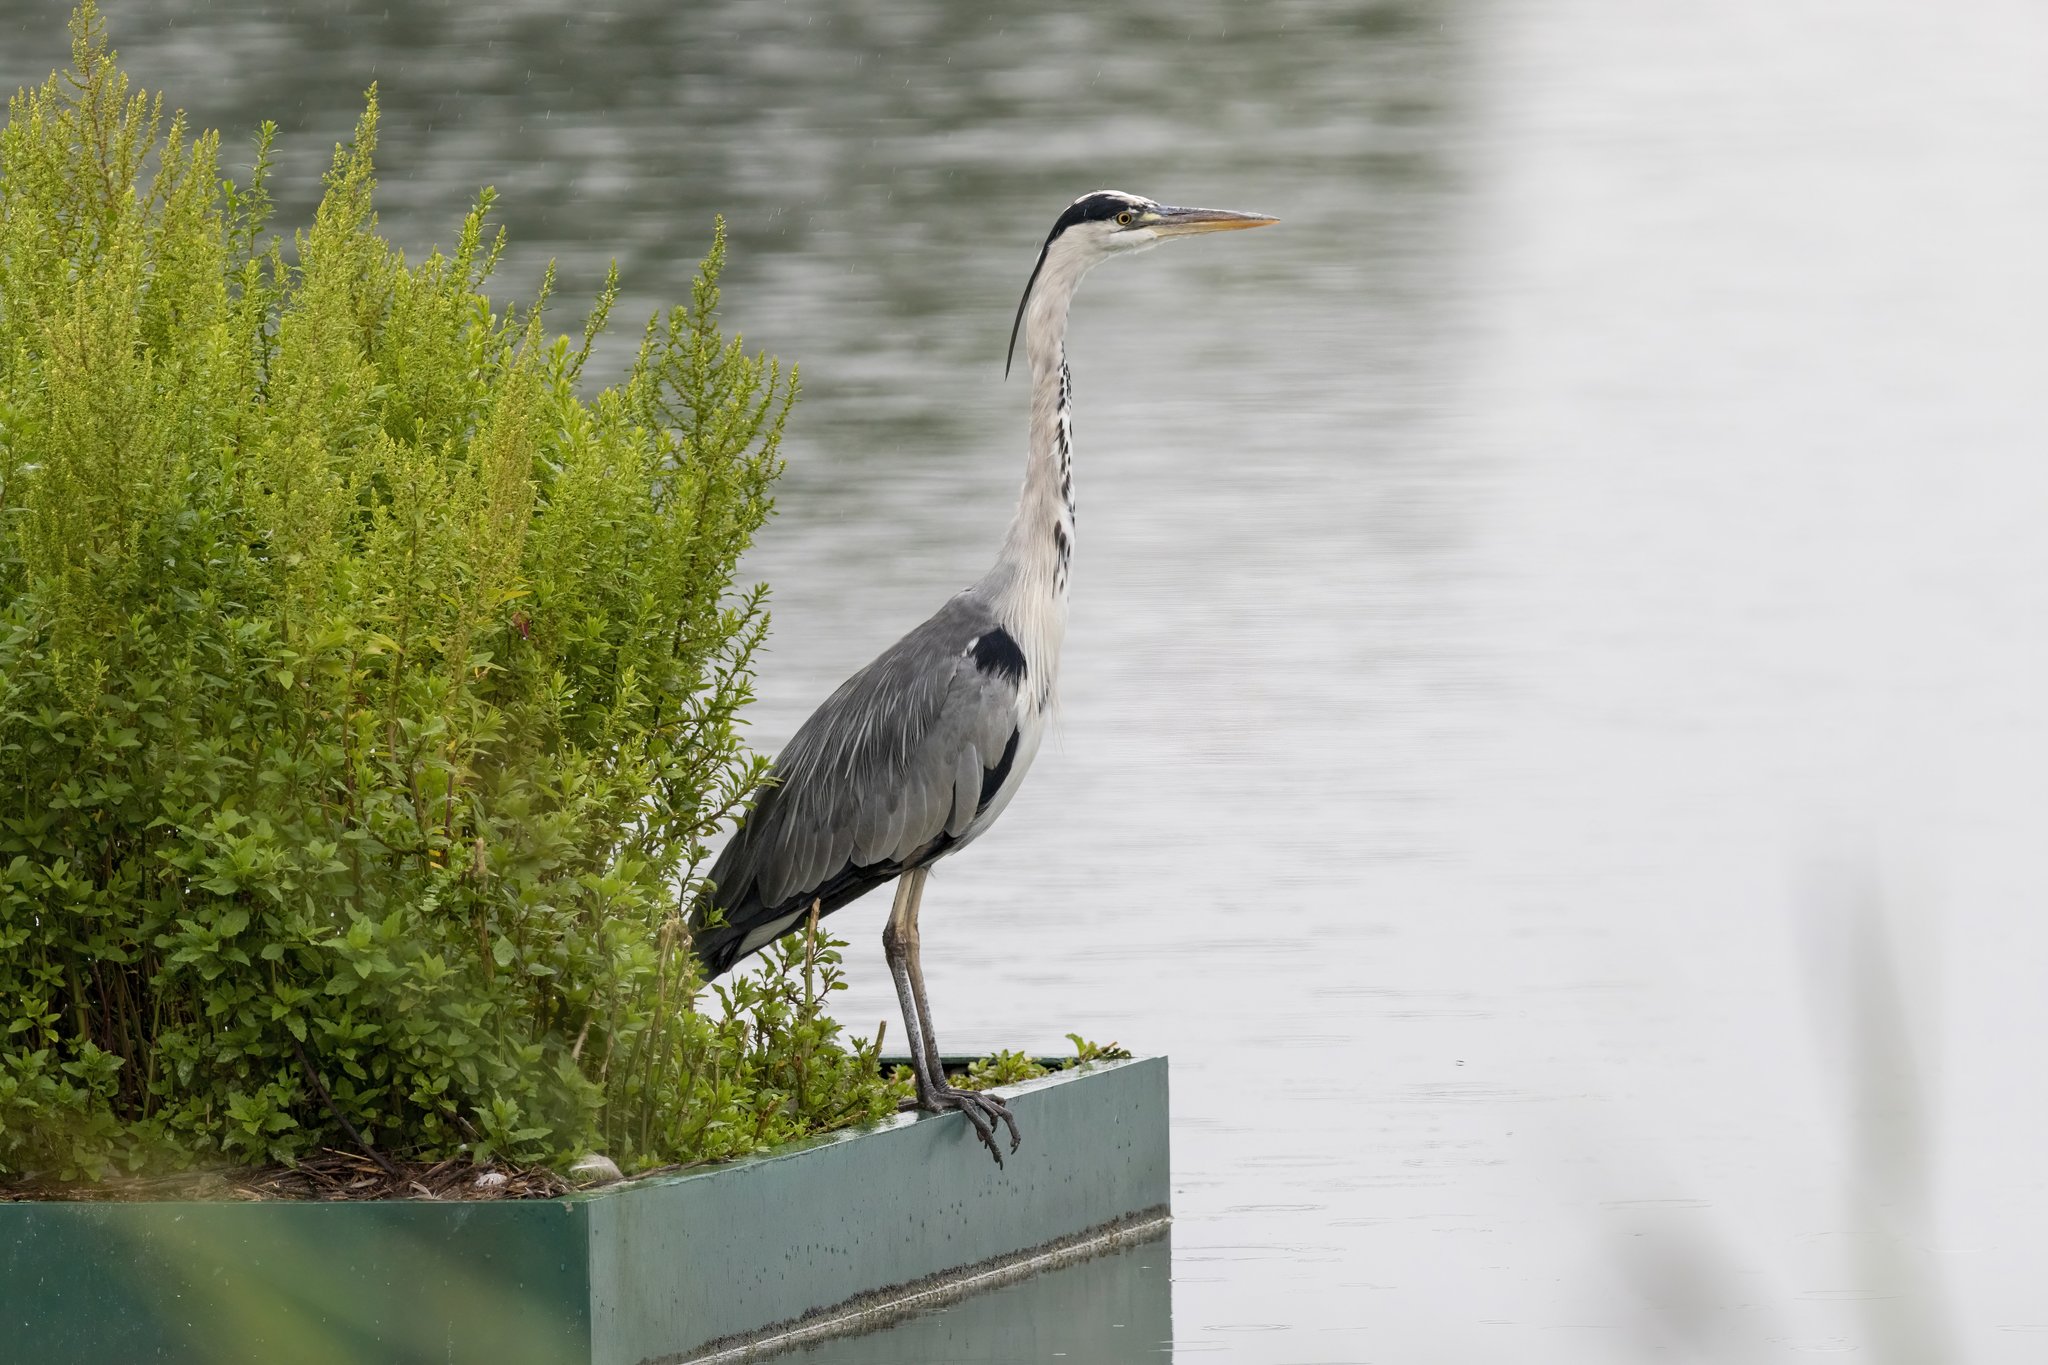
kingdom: Animalia
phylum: Chordata
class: Aves
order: Pelecaniformes
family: Ardeidae
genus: Ardea
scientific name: Ardea cinerea
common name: Grey heron
